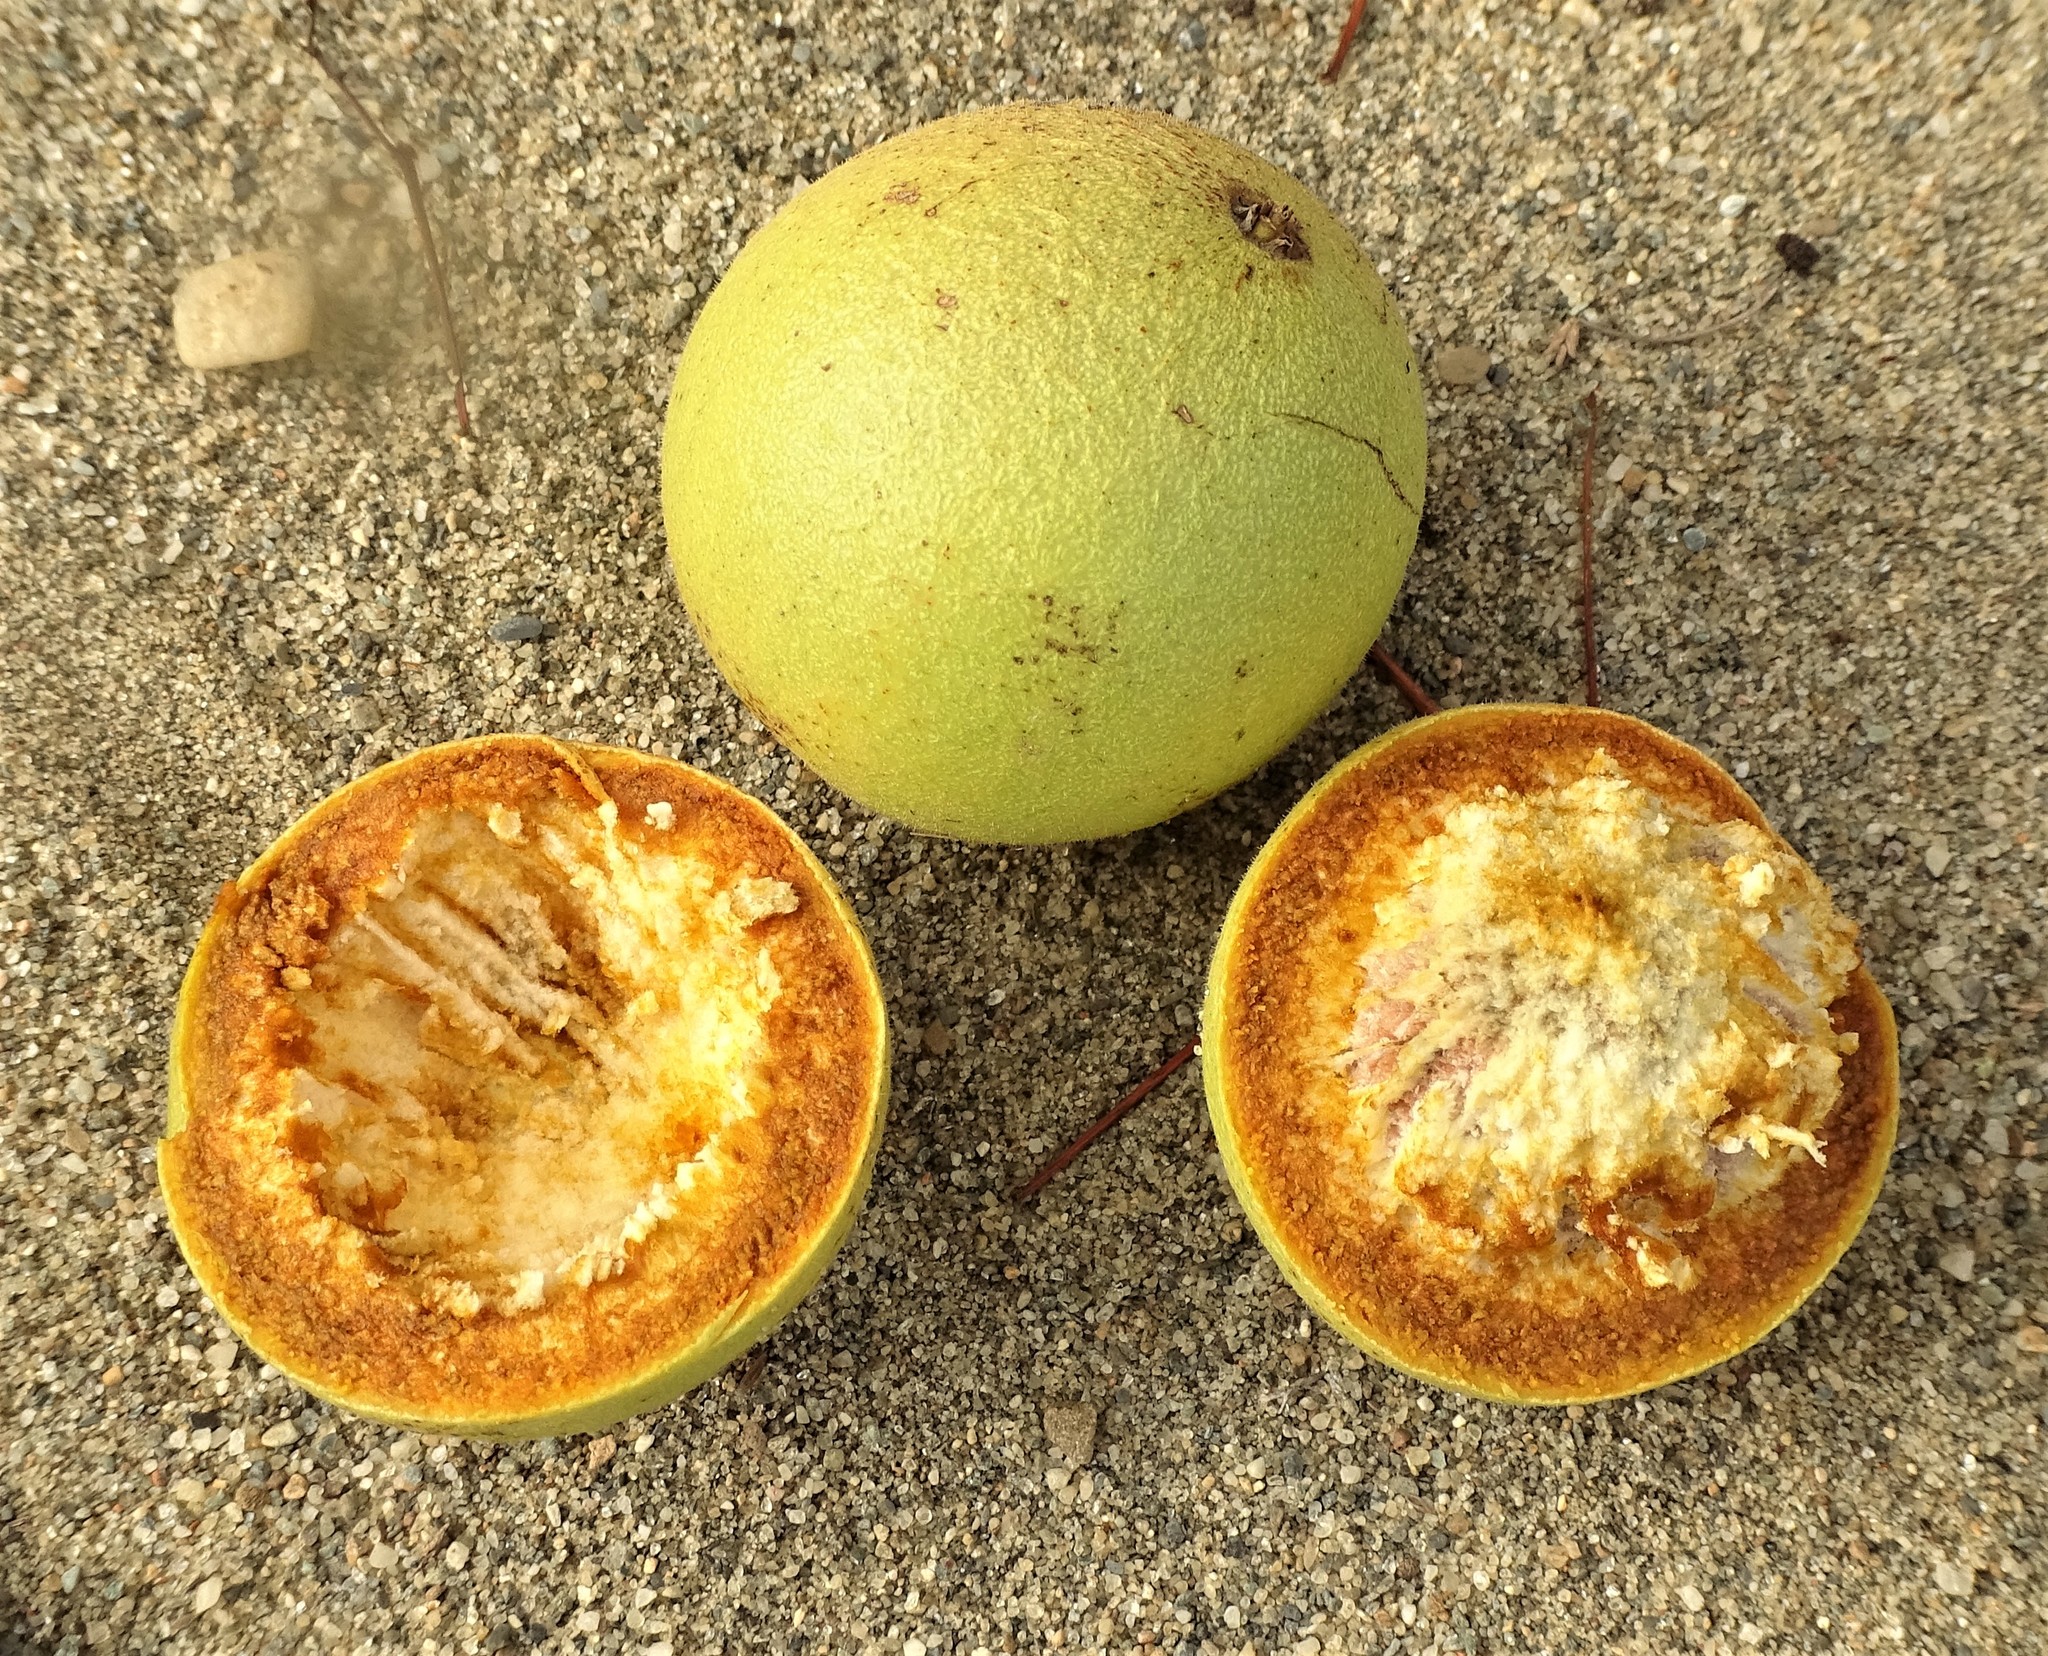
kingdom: Plantae
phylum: Tracheophyta
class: Magnoliopsida
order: Fagales
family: Juglandaceae
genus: Juglans
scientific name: Juglans nigra
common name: Black walnut
